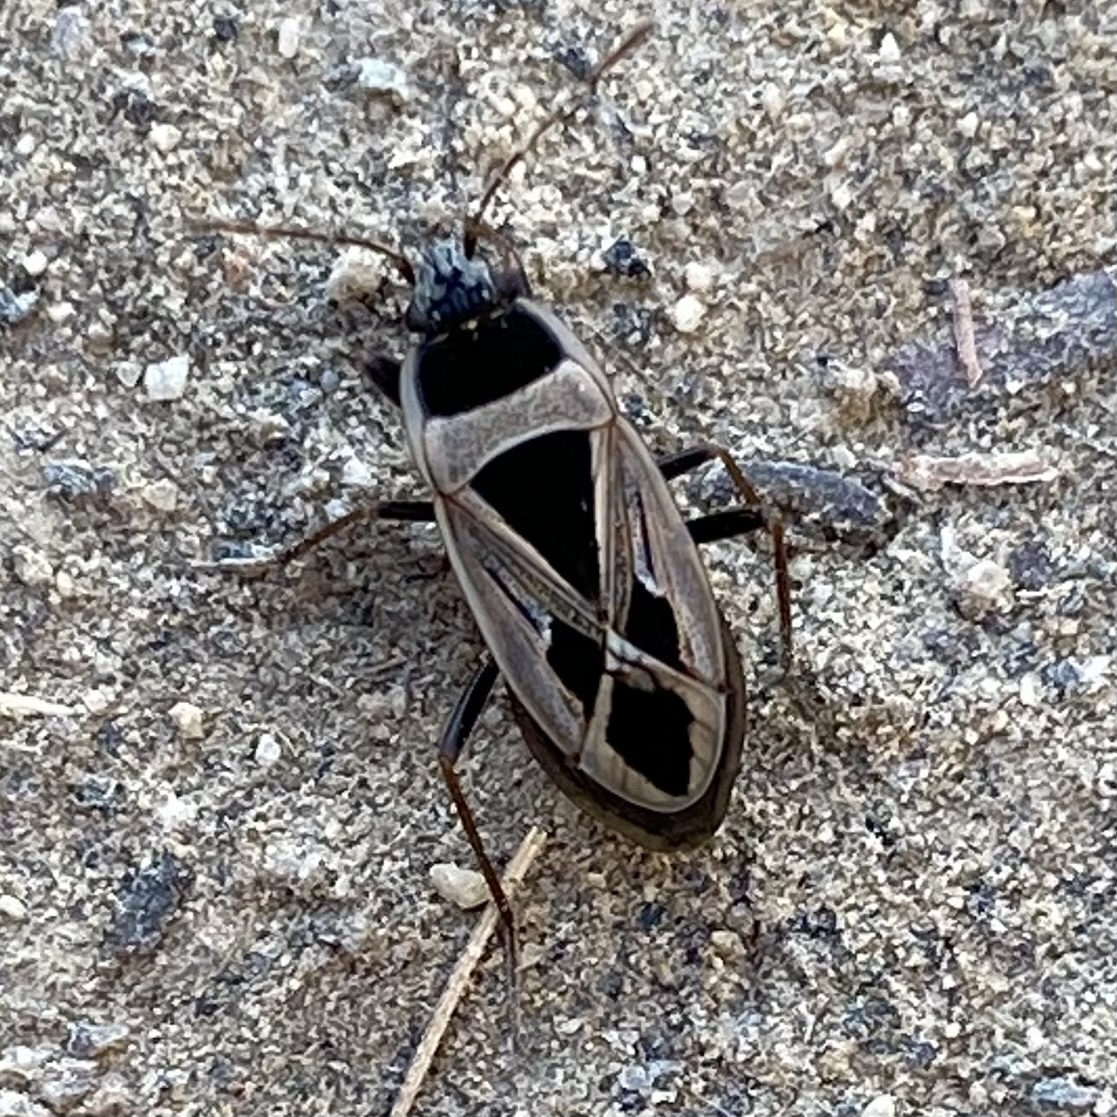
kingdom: Animalia
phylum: Arthropoda
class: Insecta
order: Hemiptera
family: Rhyparochromidae
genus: Xanthochilus
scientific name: Xanthochilus saturnius
